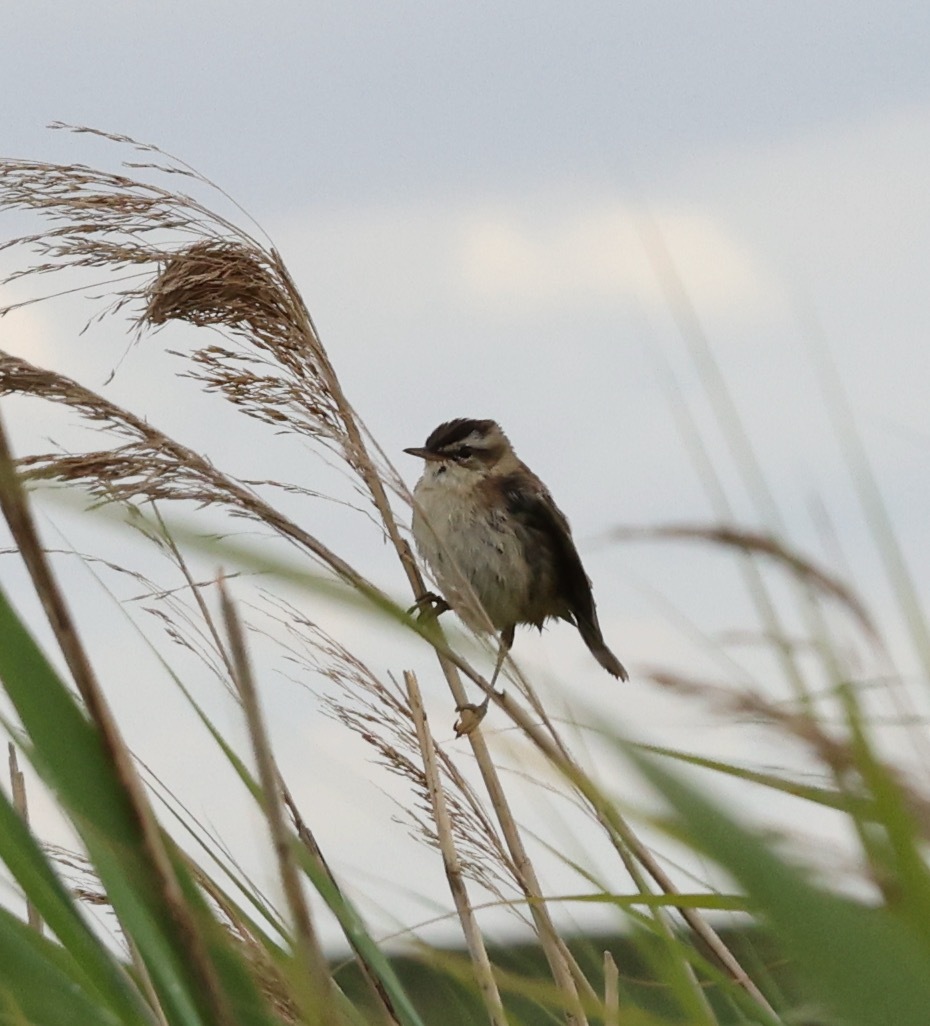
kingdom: Animalia
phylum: Chordata
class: Aves
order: Passeriformes
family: Acrocephalidae
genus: Acrocephalus
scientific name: Acrocephalus schoenobaenus
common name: Sedge warbler
